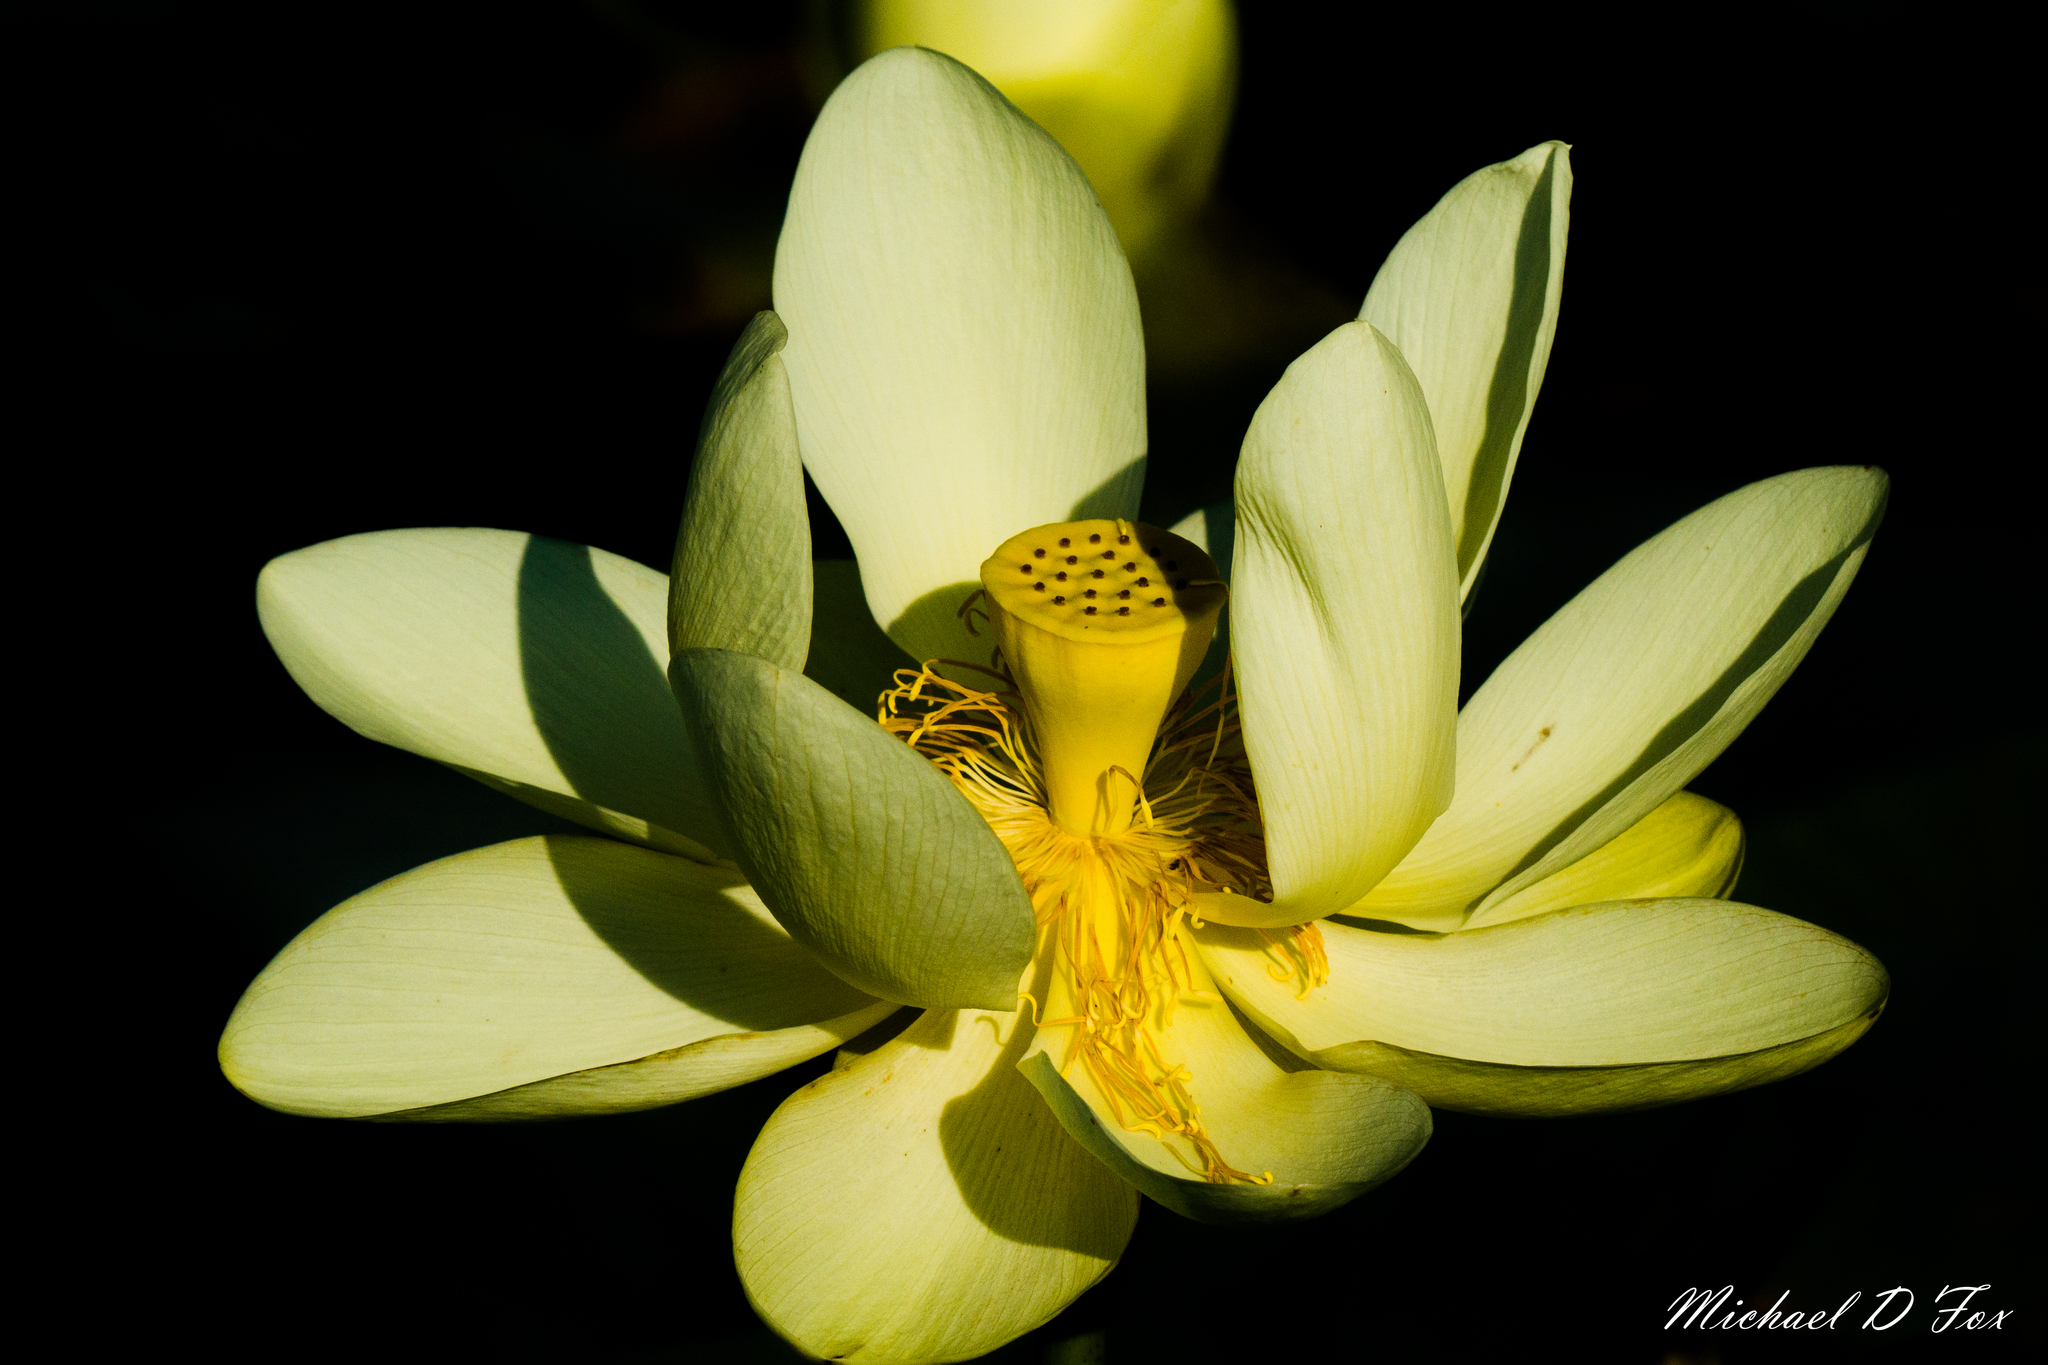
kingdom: Plantae
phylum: Tracheophyta
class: Magnoliopsida
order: Proteales
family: Nelumbonaceae
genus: Nelumbo
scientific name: Nelumbo lutea
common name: American lotus
